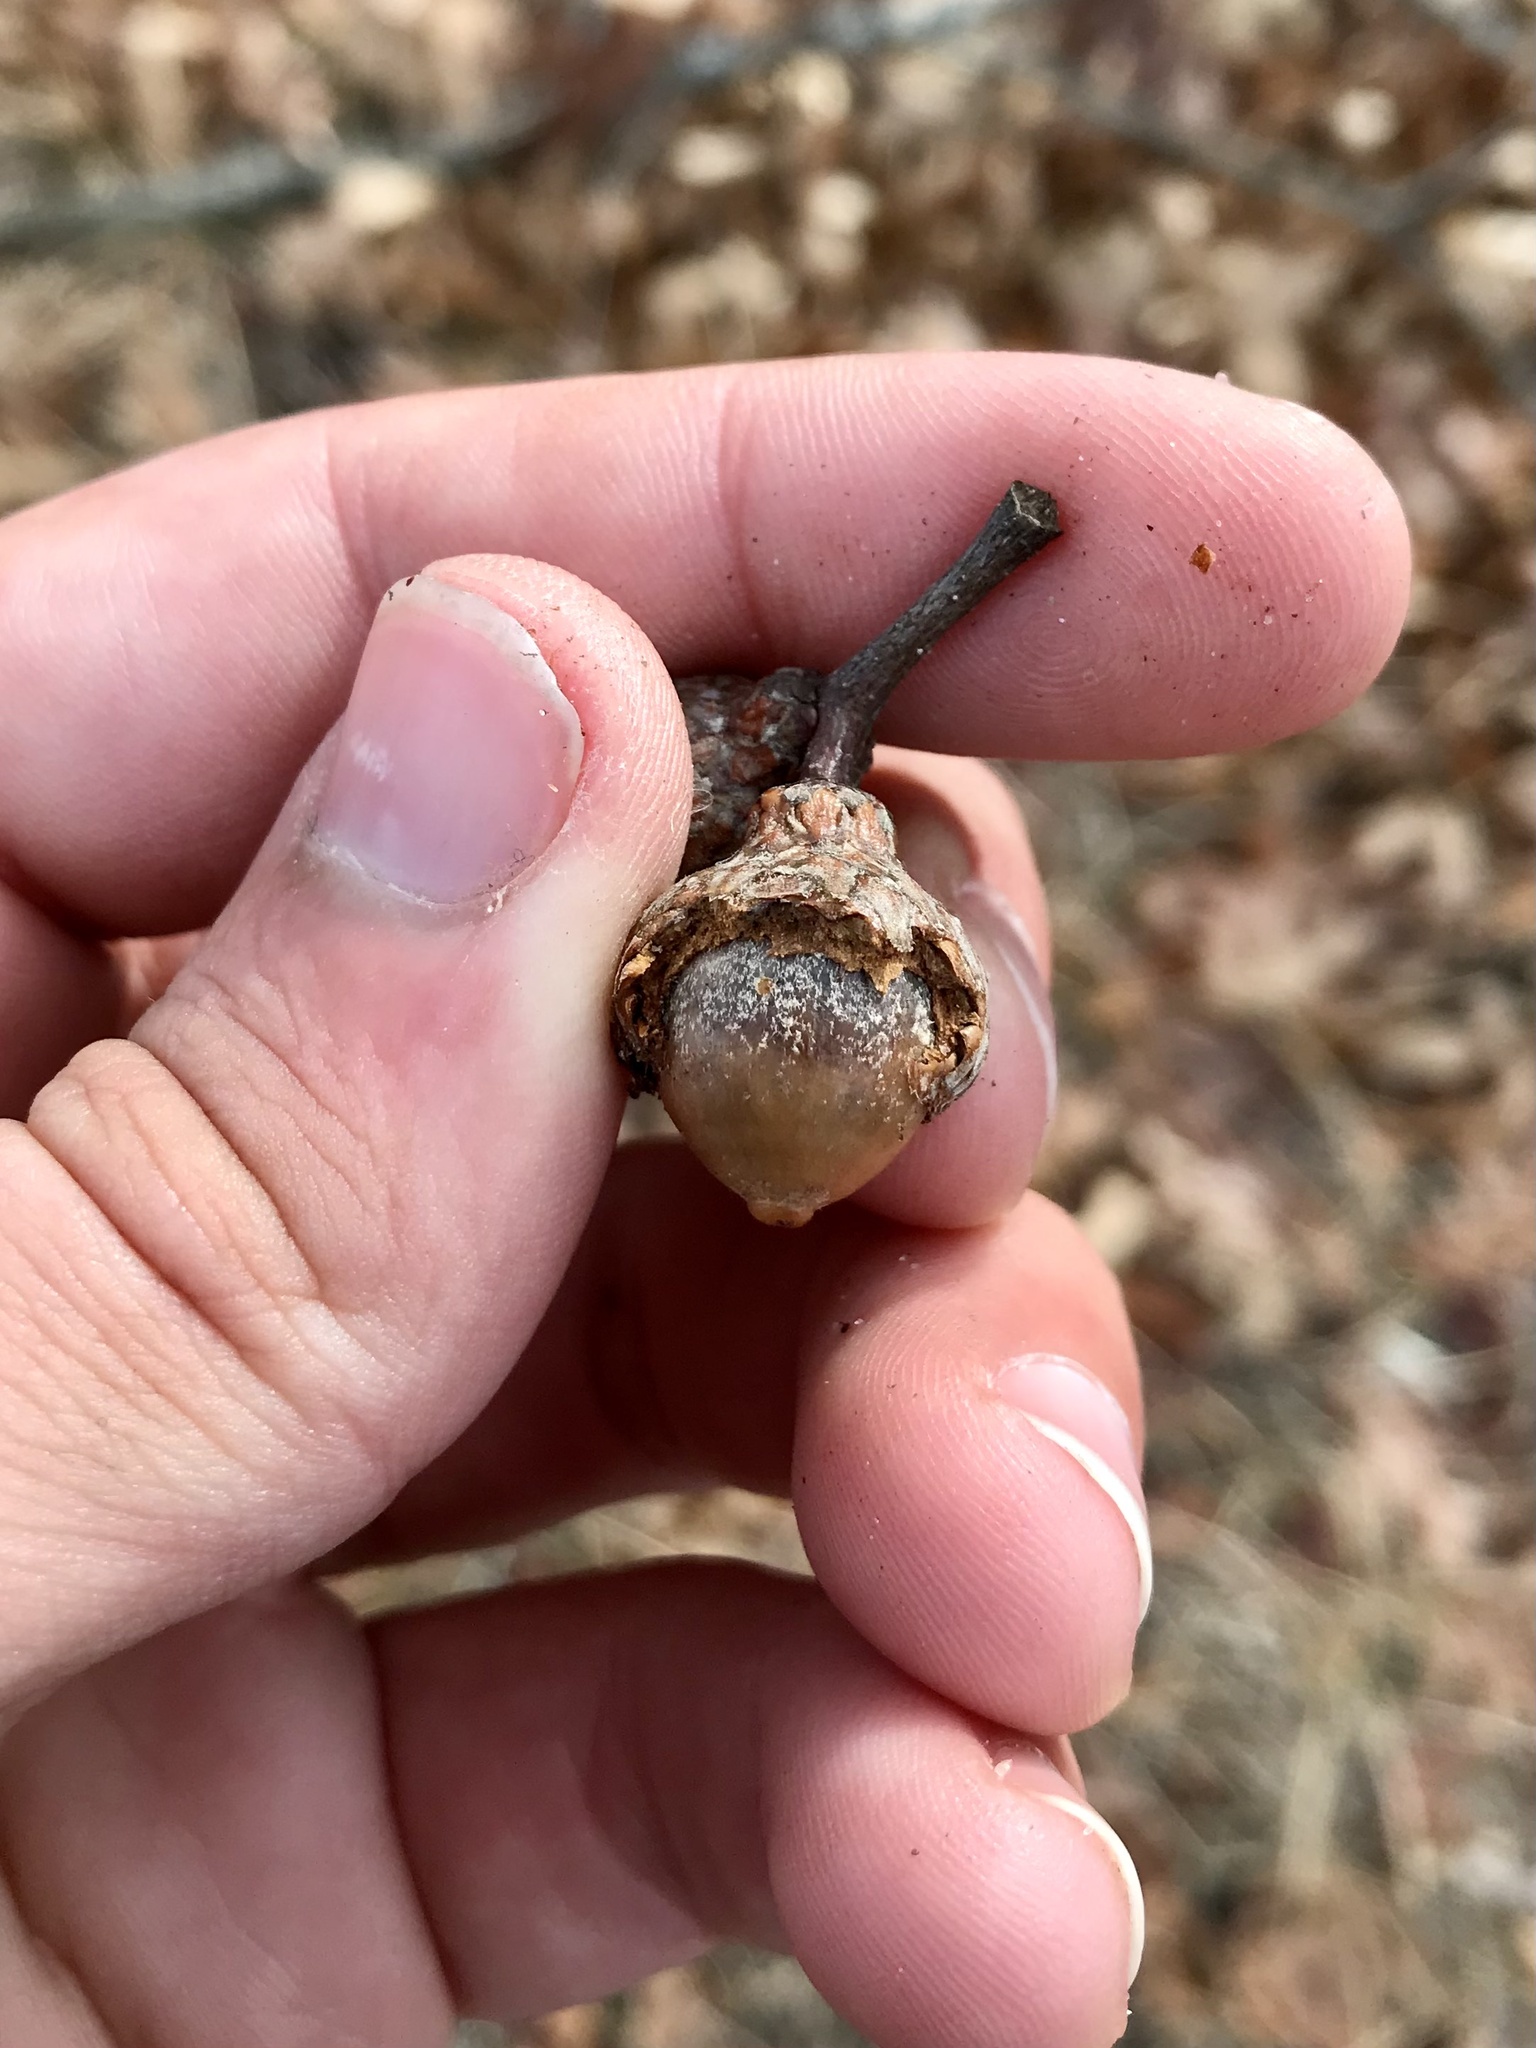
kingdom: Plantae
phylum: Tracheophyta
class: Magnoliopsida
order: Fagales
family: Fagaceae
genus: Quercus
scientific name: Quercus ellipsoidalis
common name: Hill's oak
